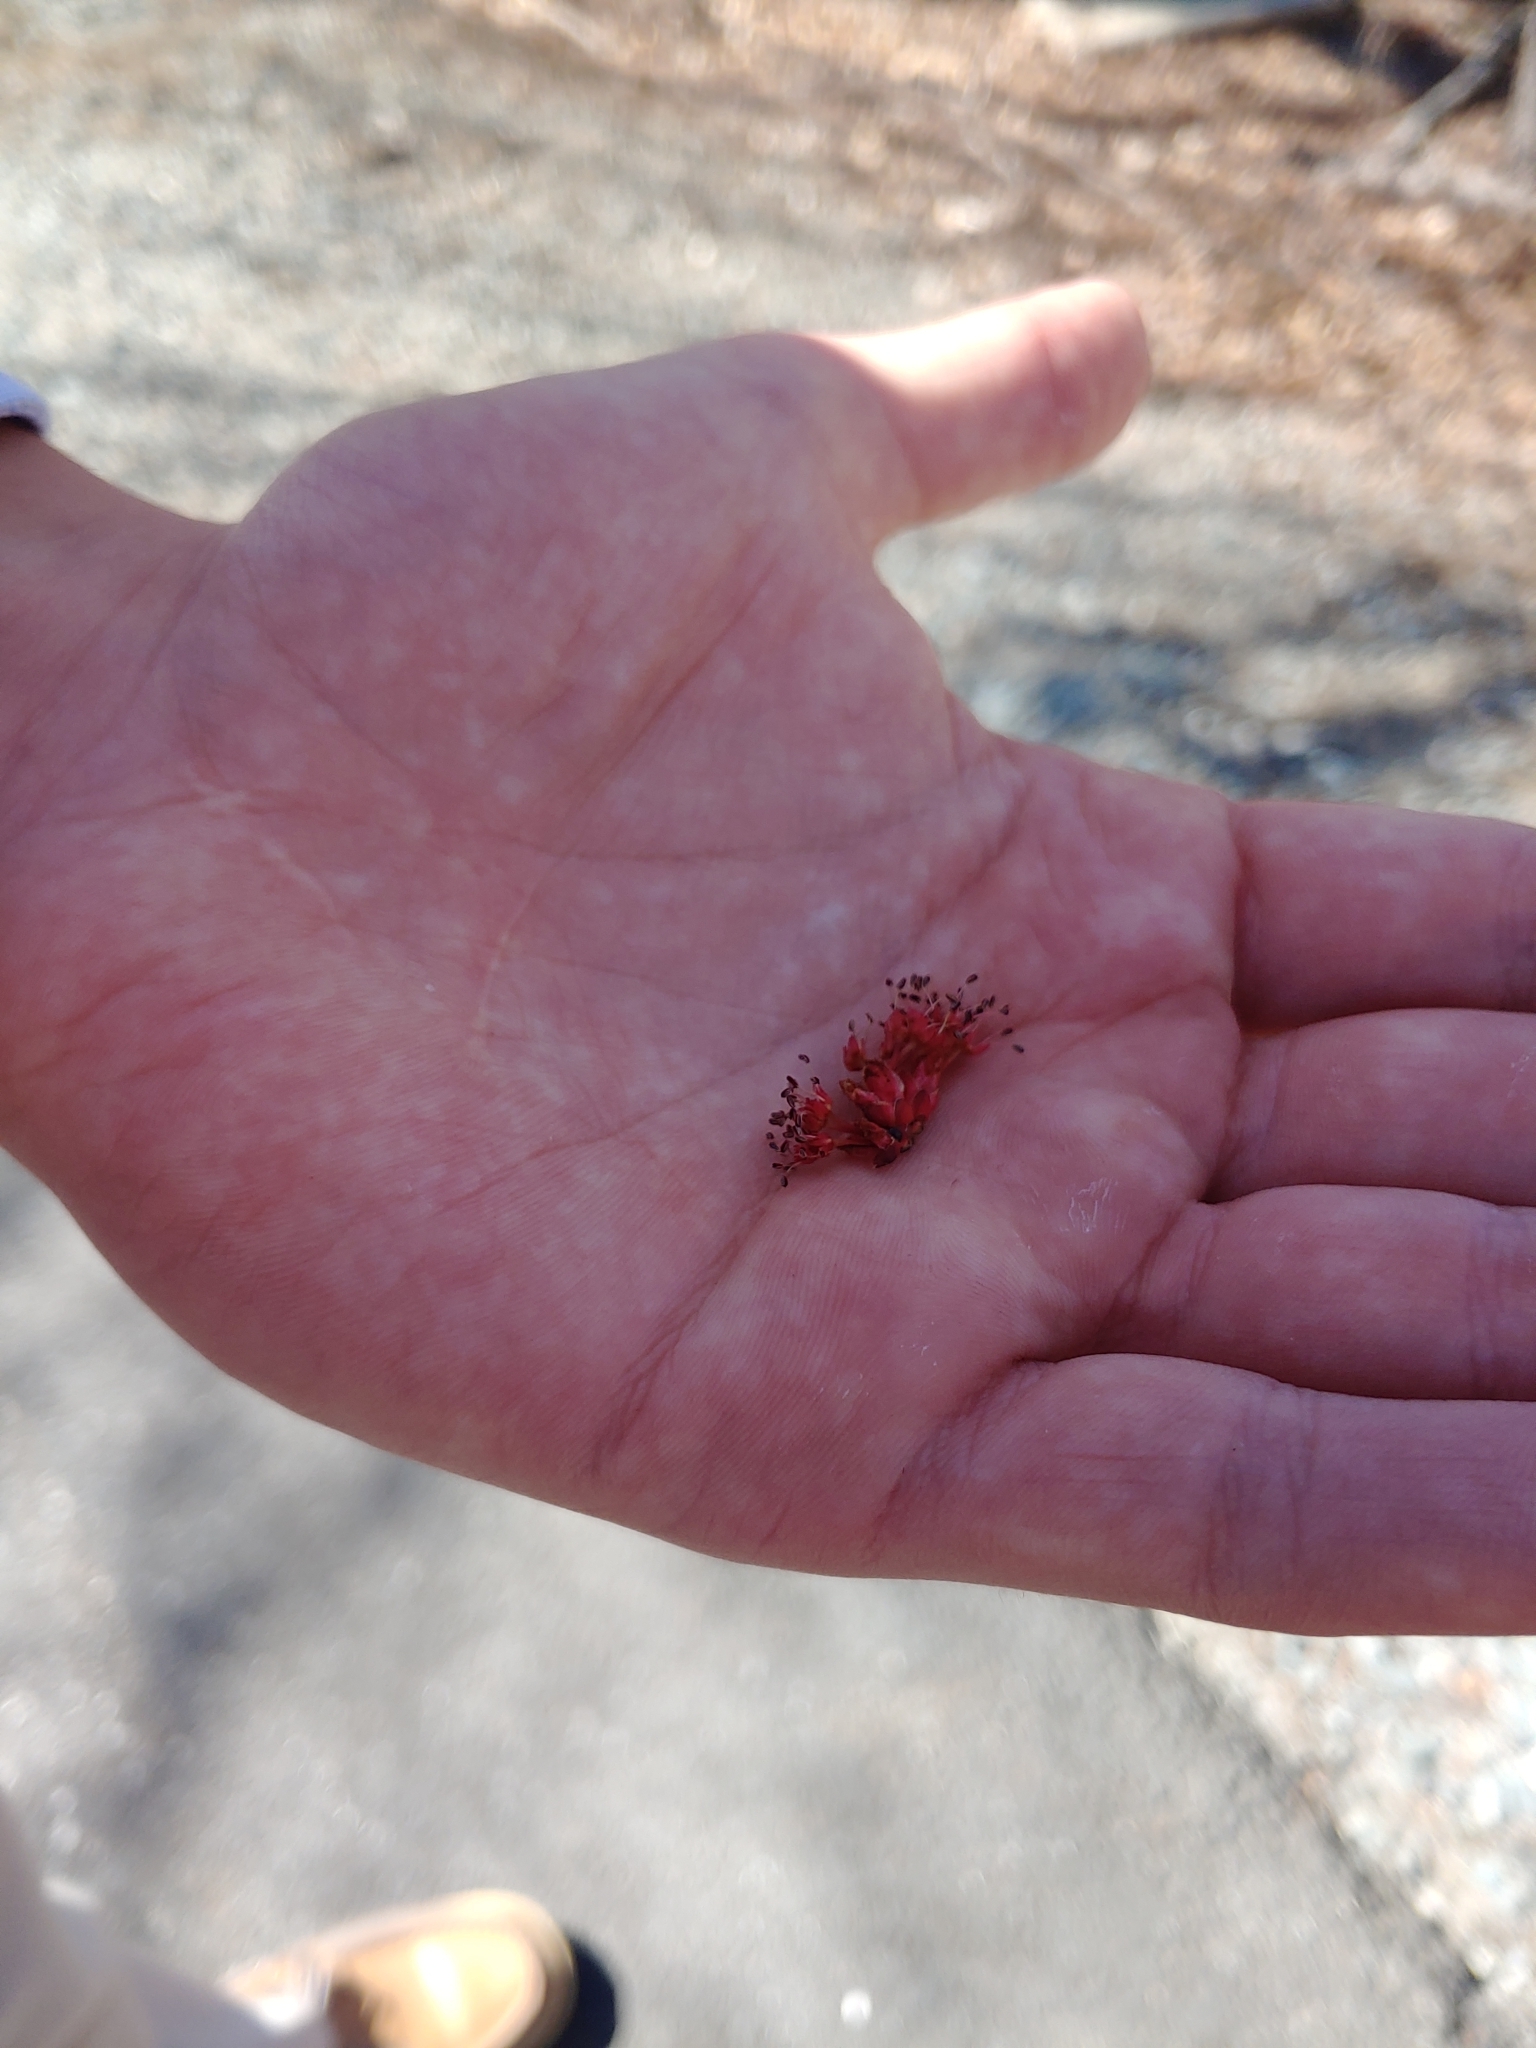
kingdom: Plantae
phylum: Tracheophyta
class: Magnoliopsida
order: Sapindales
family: Sapindaceae
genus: Acer
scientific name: Acer rubrum
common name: Red maple
